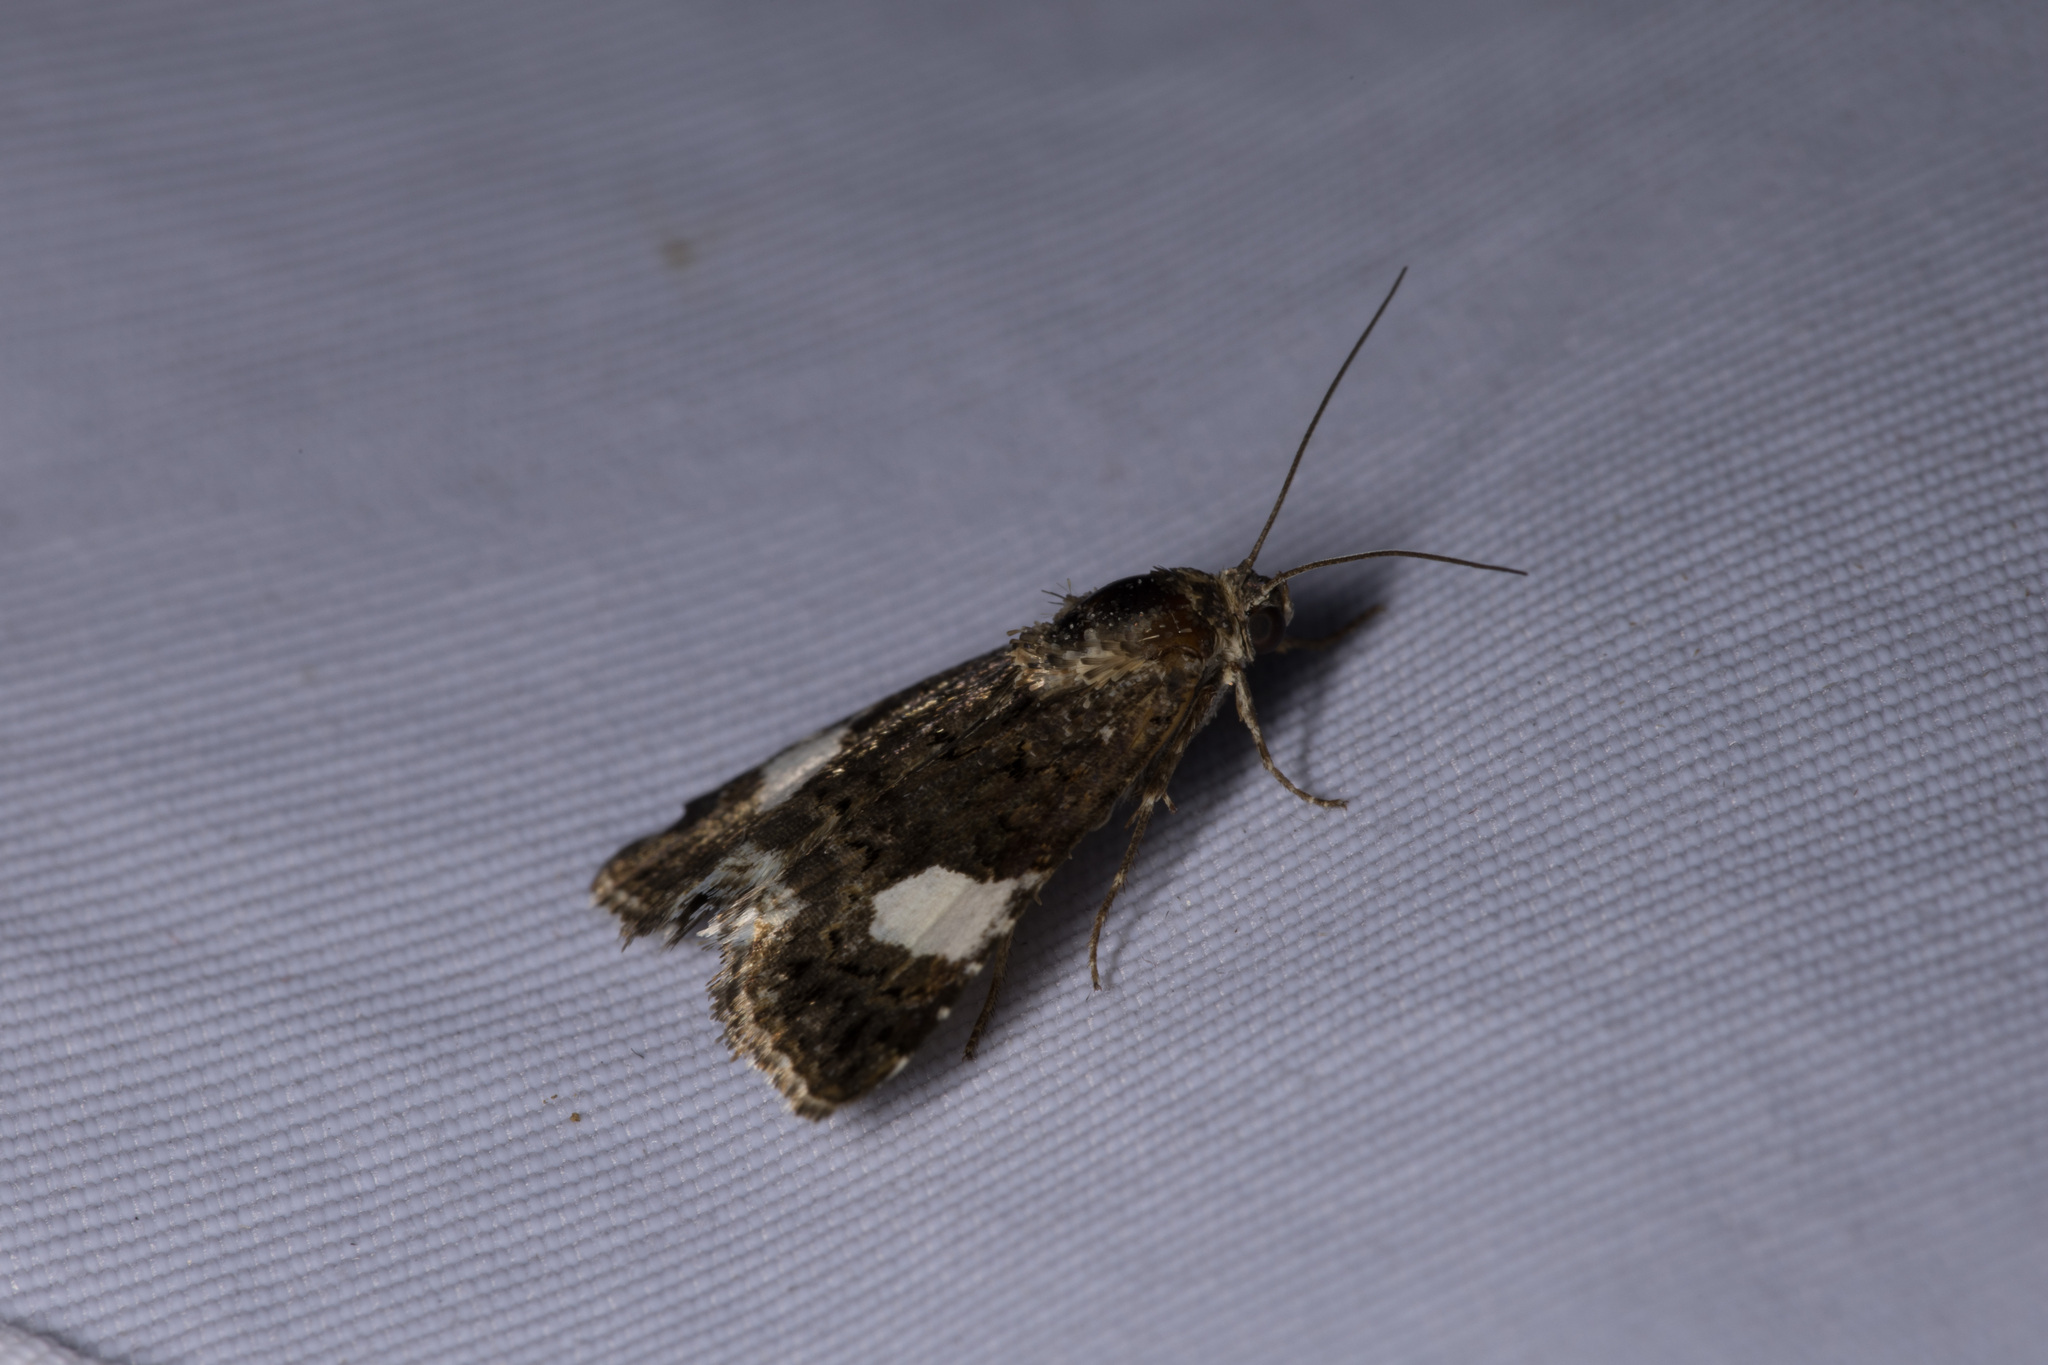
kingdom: Animalia
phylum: Arthropoda
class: Insecta
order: Lepidoptera
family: Erebidae
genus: Tyta
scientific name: Tyta luctuosa
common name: Four-spotted
